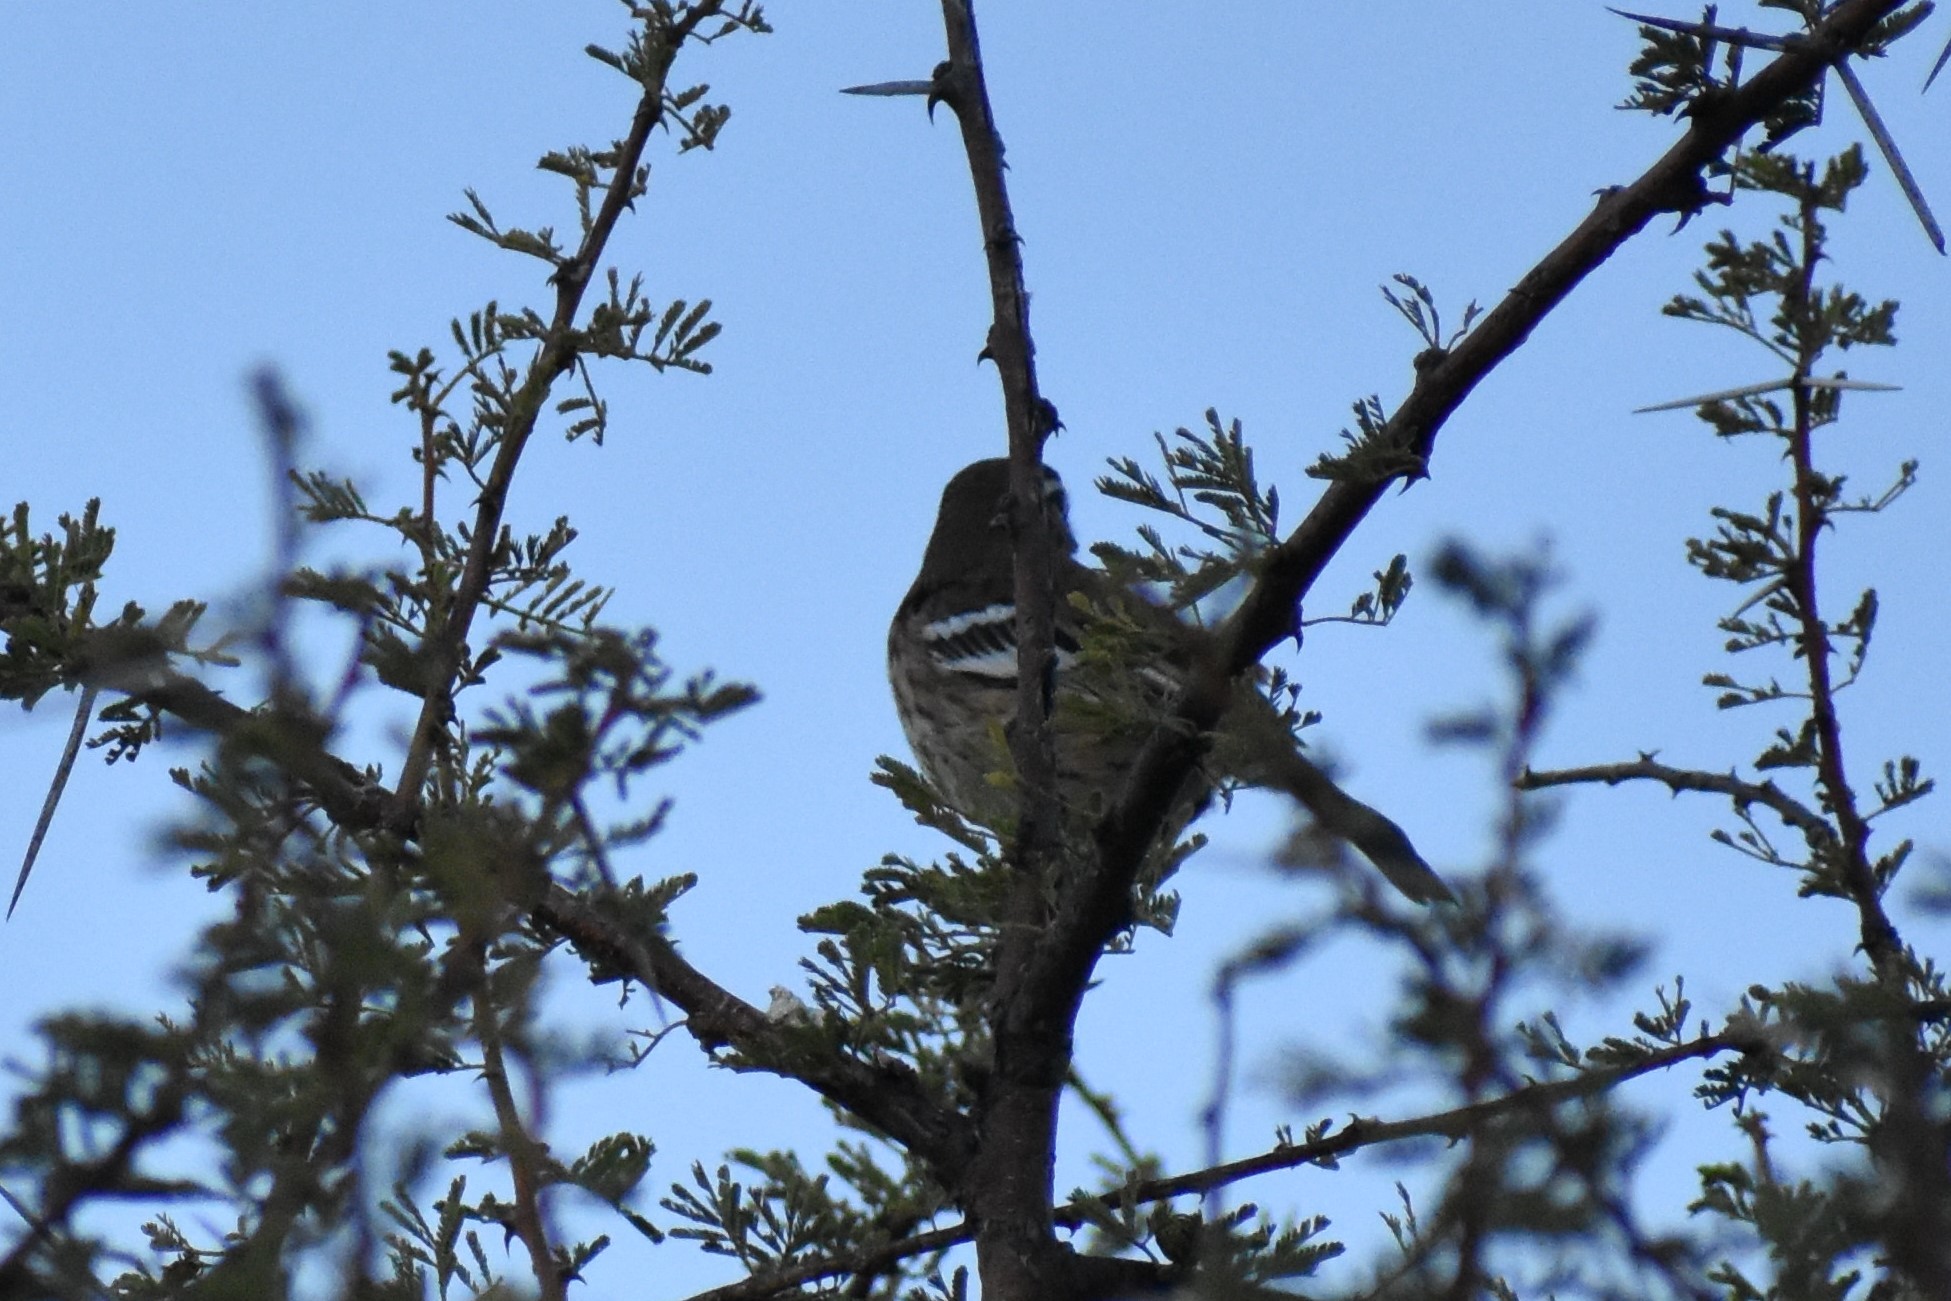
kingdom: Animalia
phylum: Chordata
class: Aves
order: Passeriformes
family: Muscicapidae
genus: Erythropygia
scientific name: Erythropygia leucophrys
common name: White-browed scrub robin
